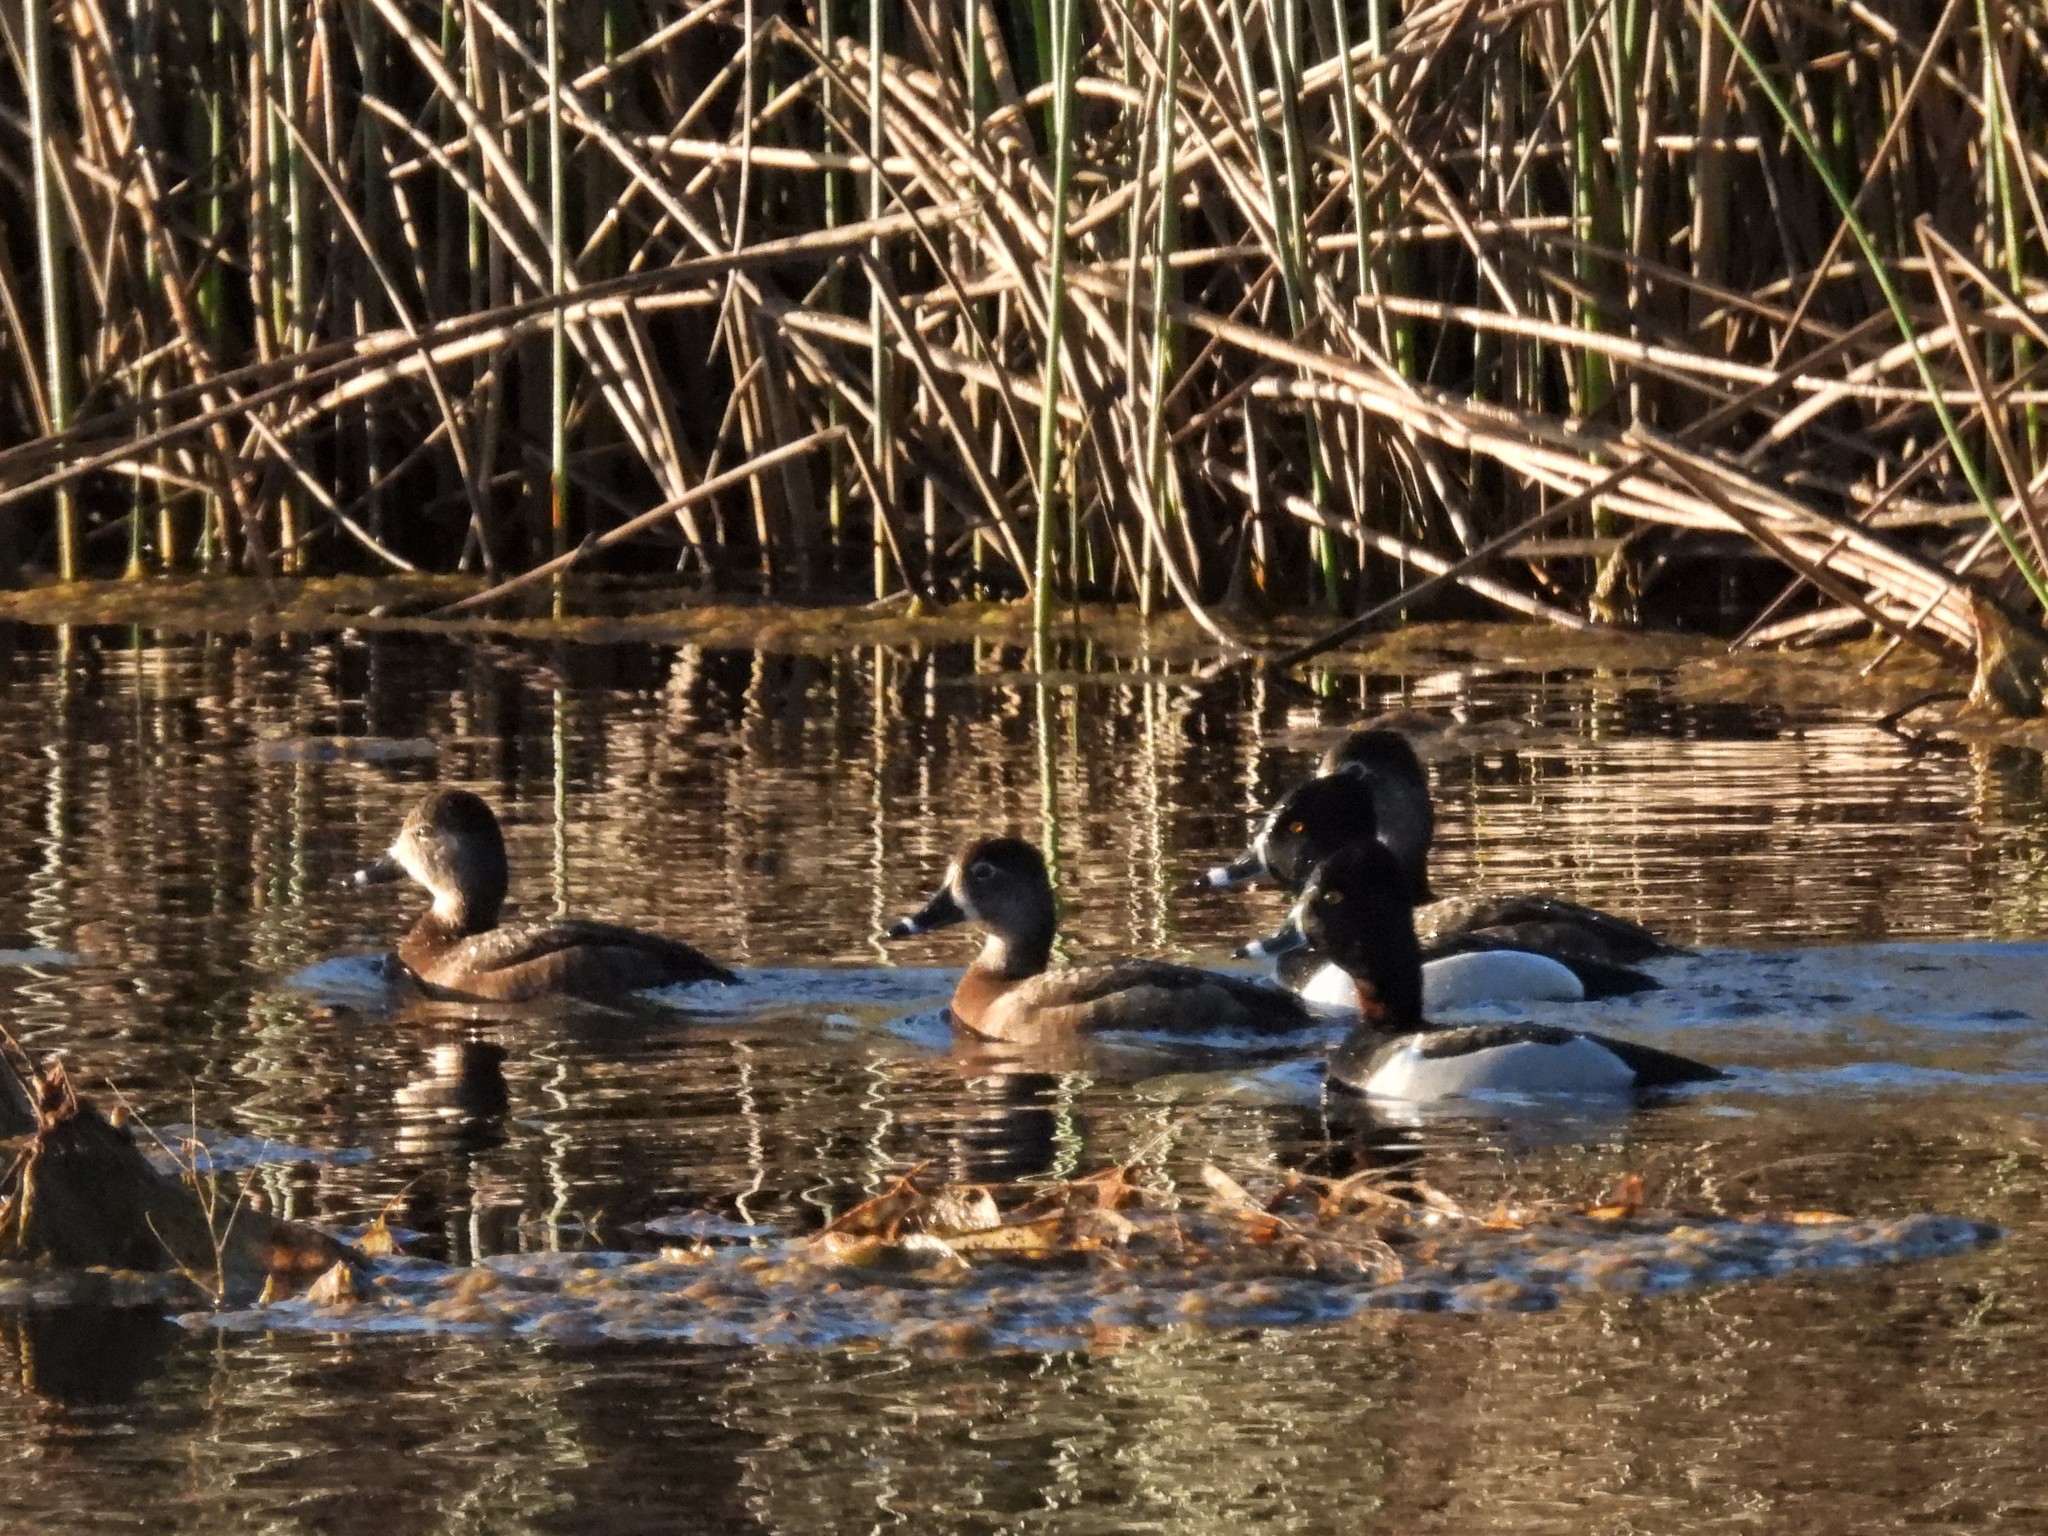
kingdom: Animalia
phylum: Chordata
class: Aves
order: Anseriformes
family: Anatidae
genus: Aythya
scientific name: Aythya collaris
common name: Ring-necked duck
